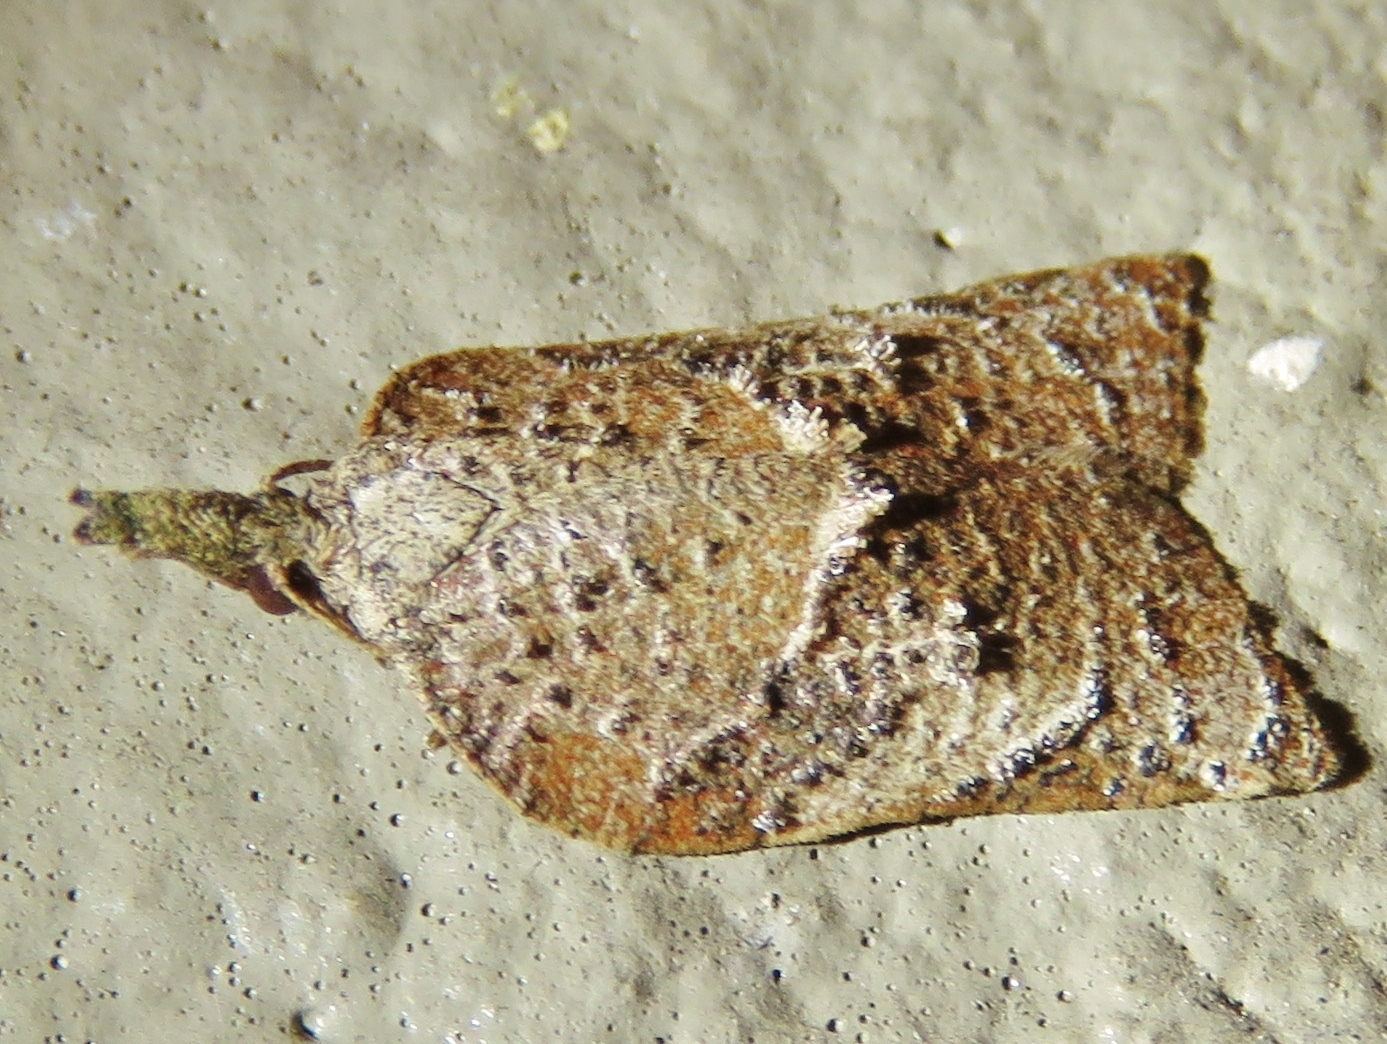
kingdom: Animalia
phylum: Arthropoda
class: Insecta
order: Lepidoptera
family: Tortricidae
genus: Platynota
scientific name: Platynota rostrana
